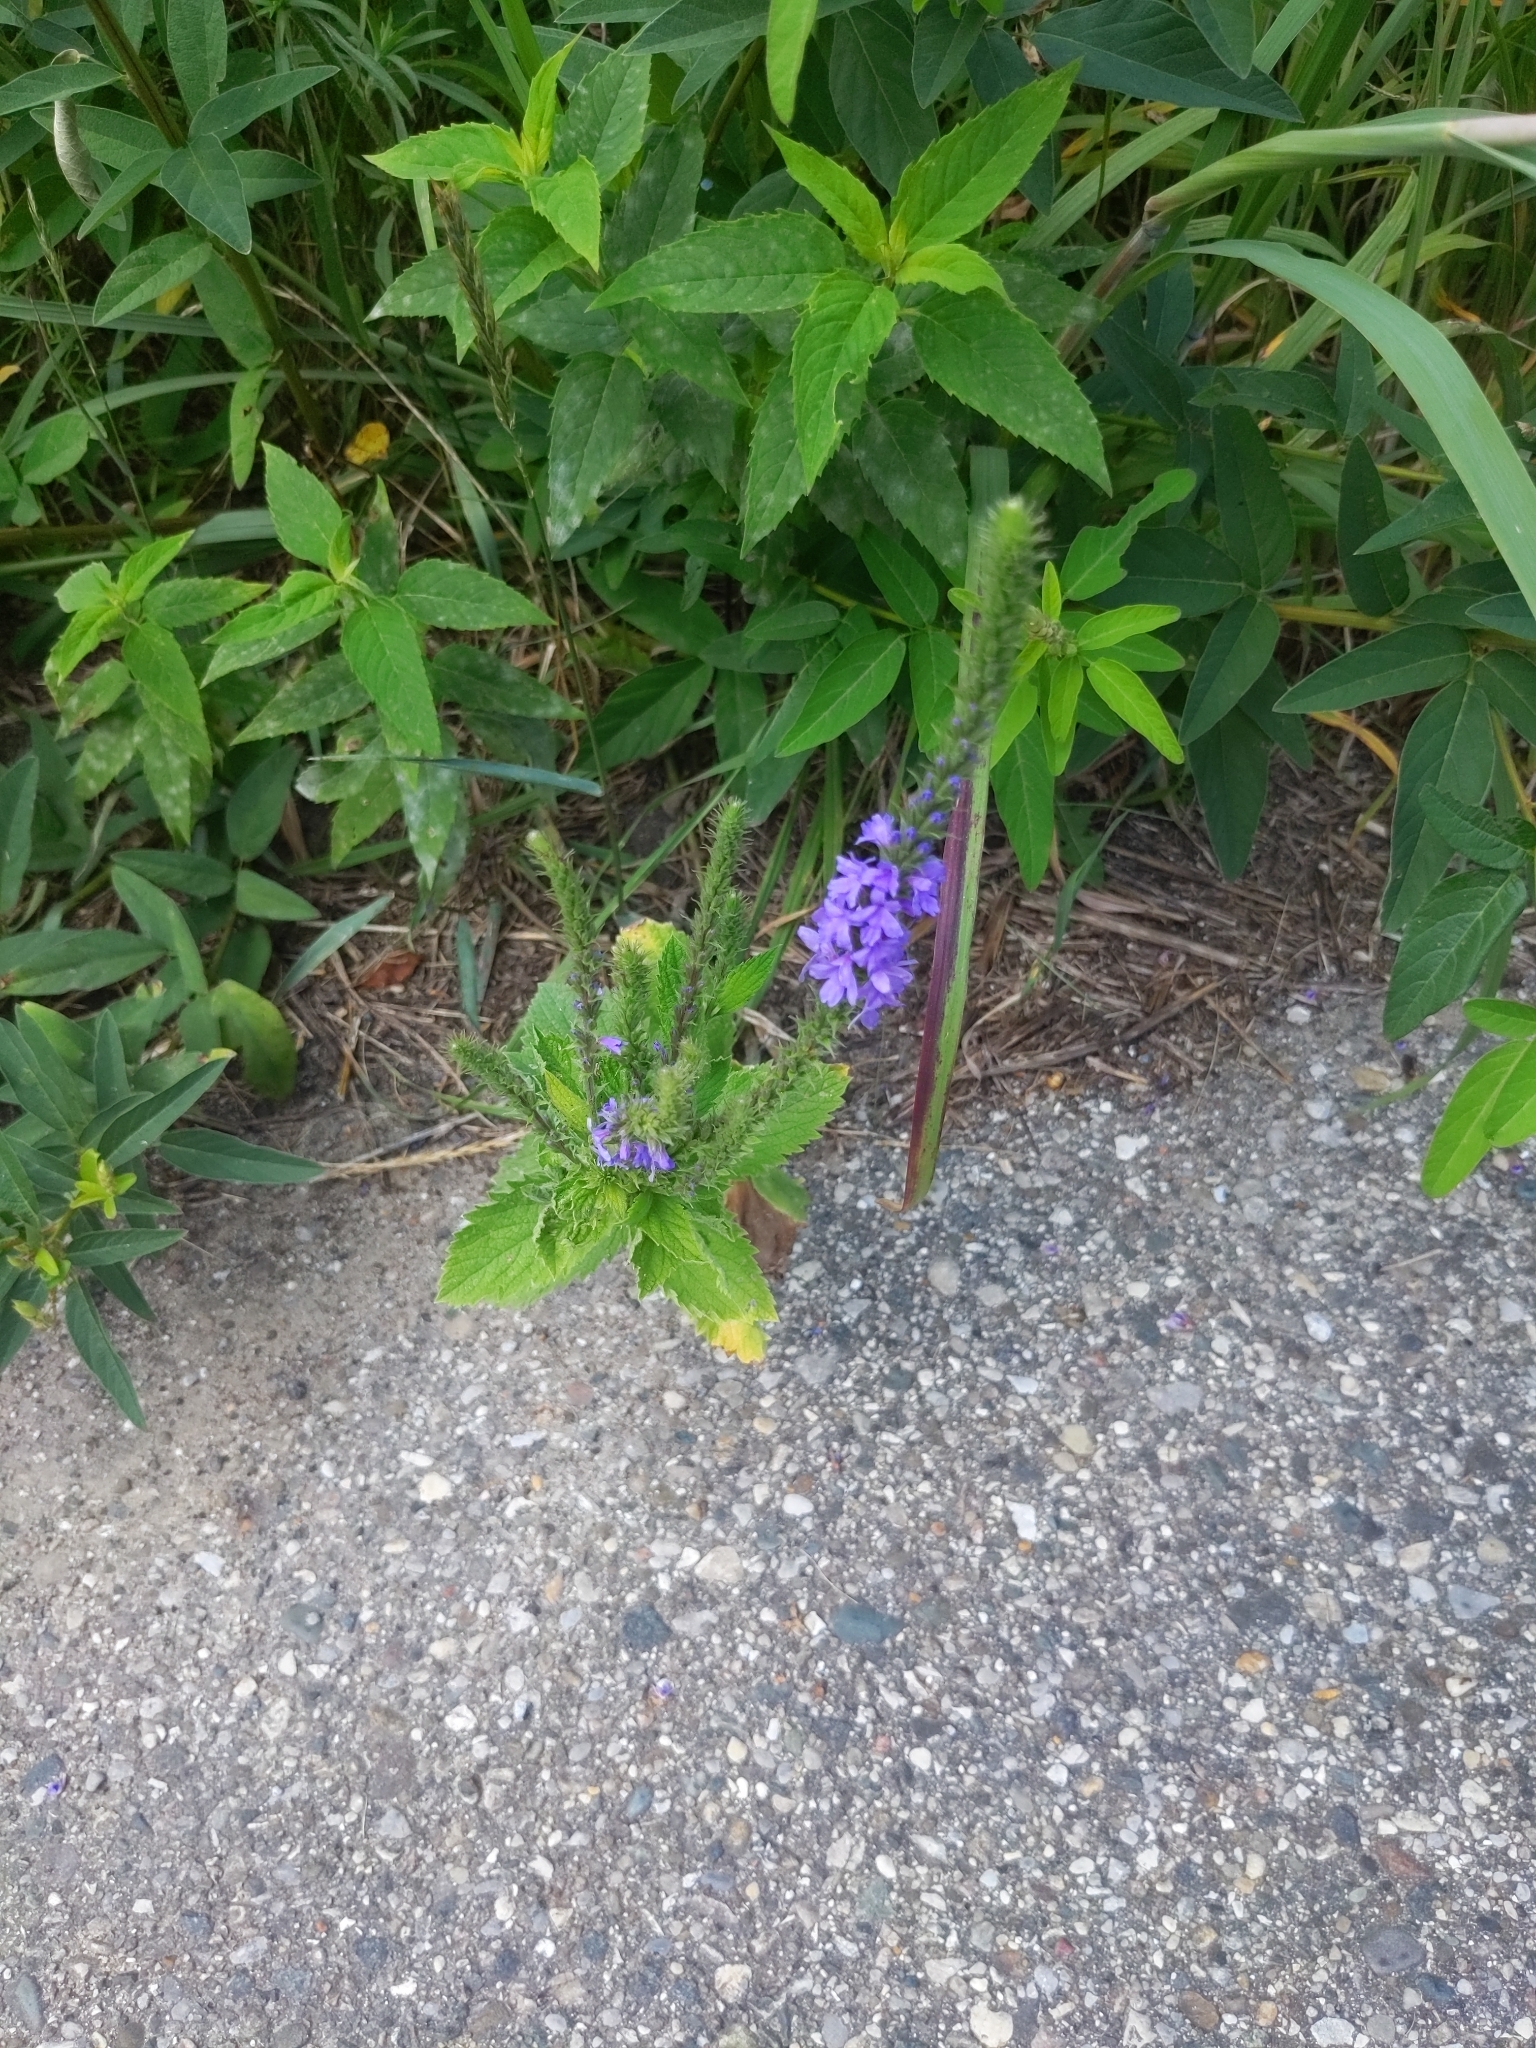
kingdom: Plantae
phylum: Tracheophyta
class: Magnoliopsida
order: Lamiales
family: Verbenaceae
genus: Verbena
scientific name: Verbena stricta
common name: Hoary vervain
